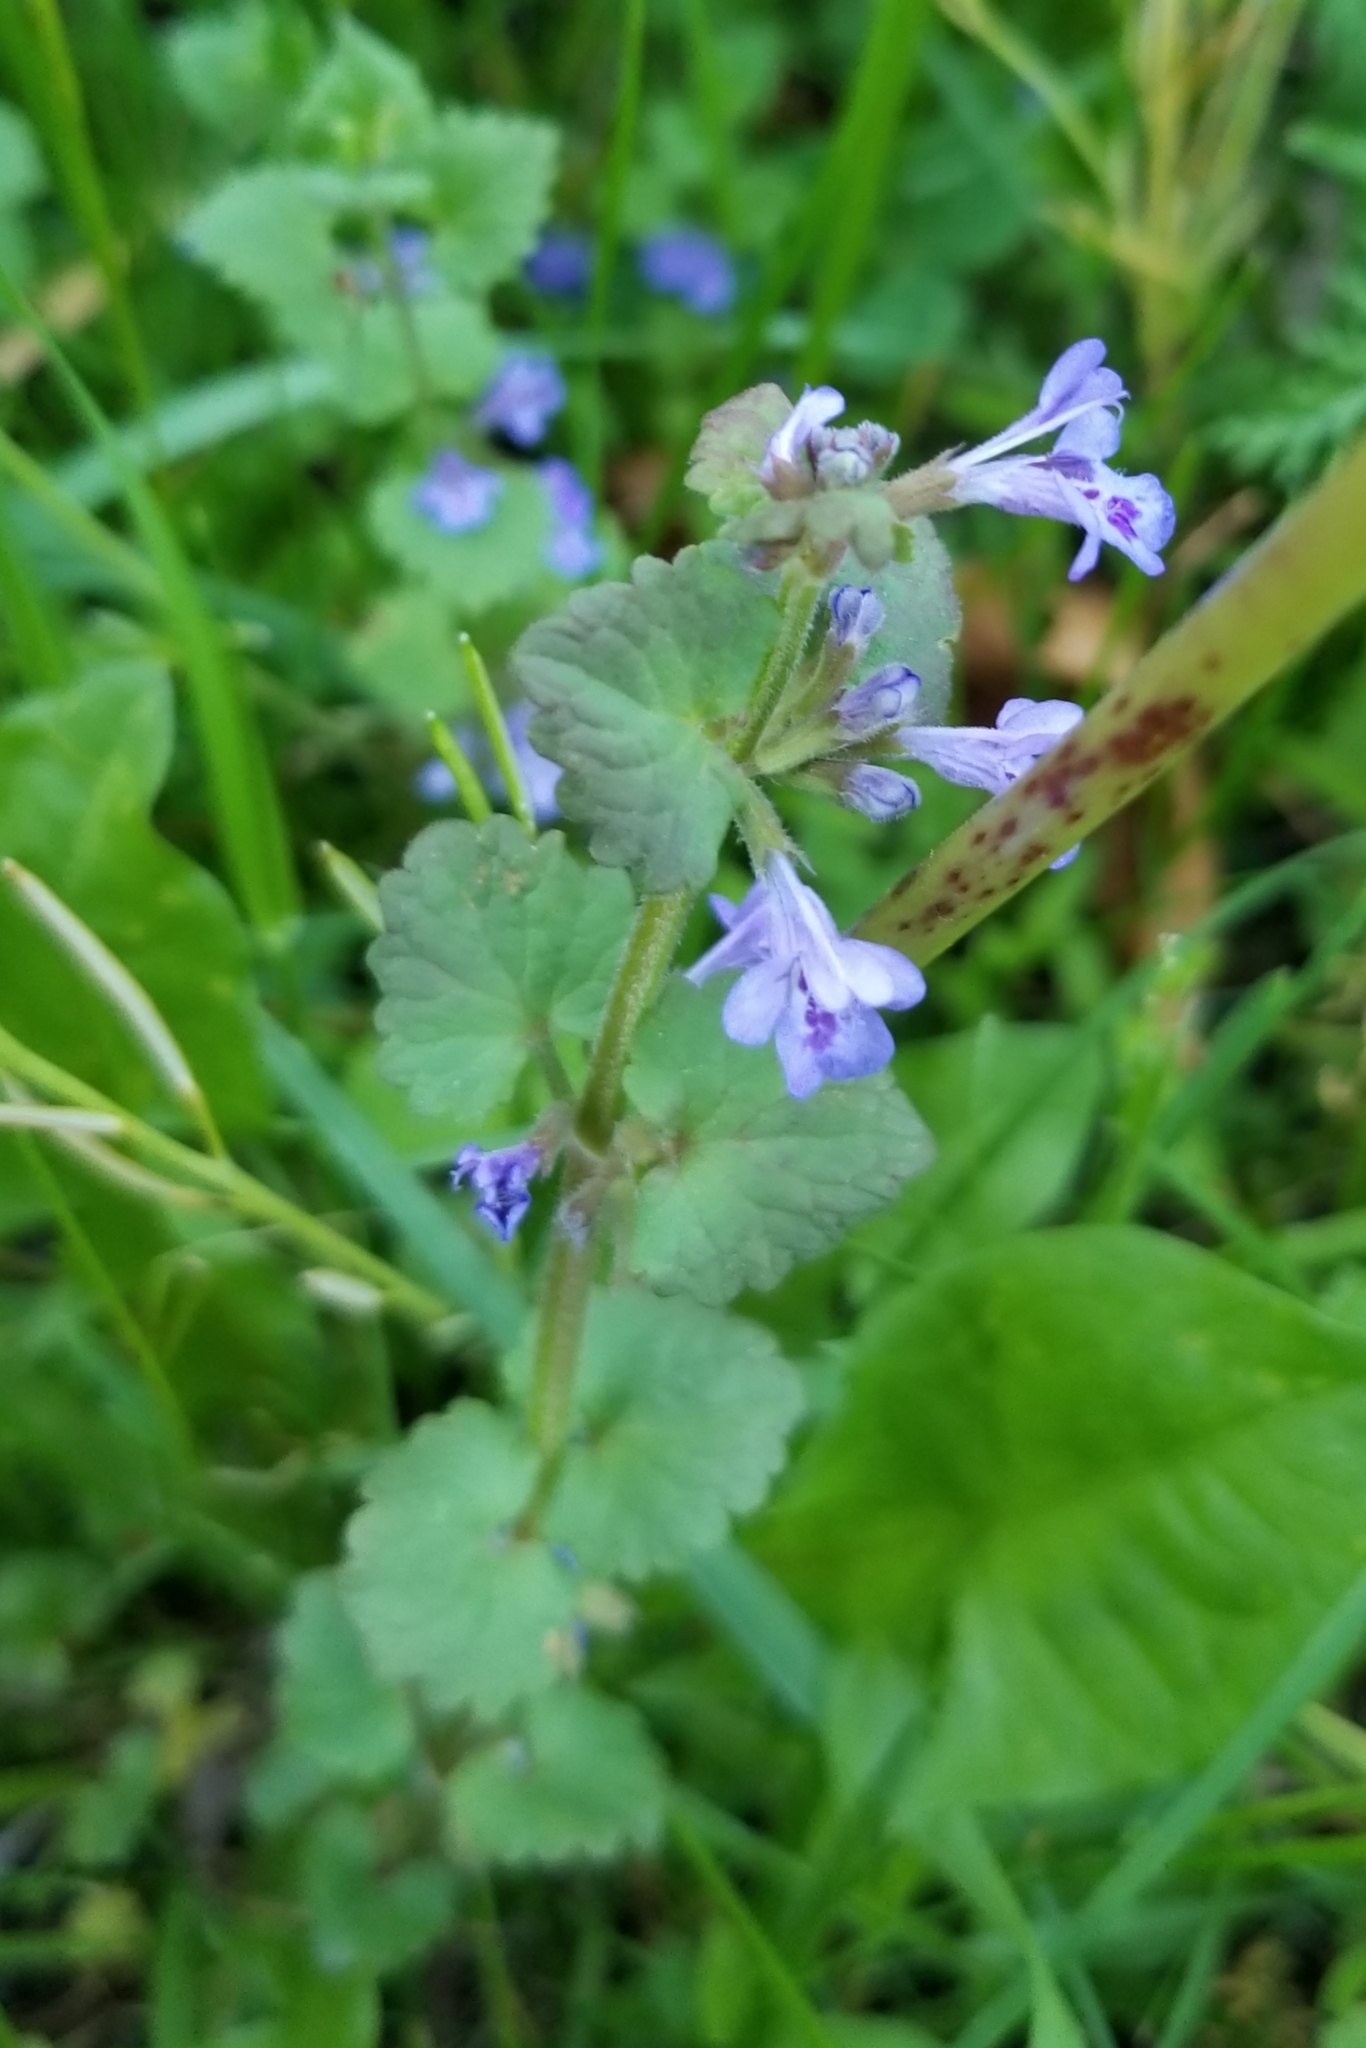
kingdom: Plantae
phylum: Tracheophyta
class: Magnoliopsida
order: Lamiales
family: Lamiaceae
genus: Glechoma
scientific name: Glechoma hederacea
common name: Ground ivy
